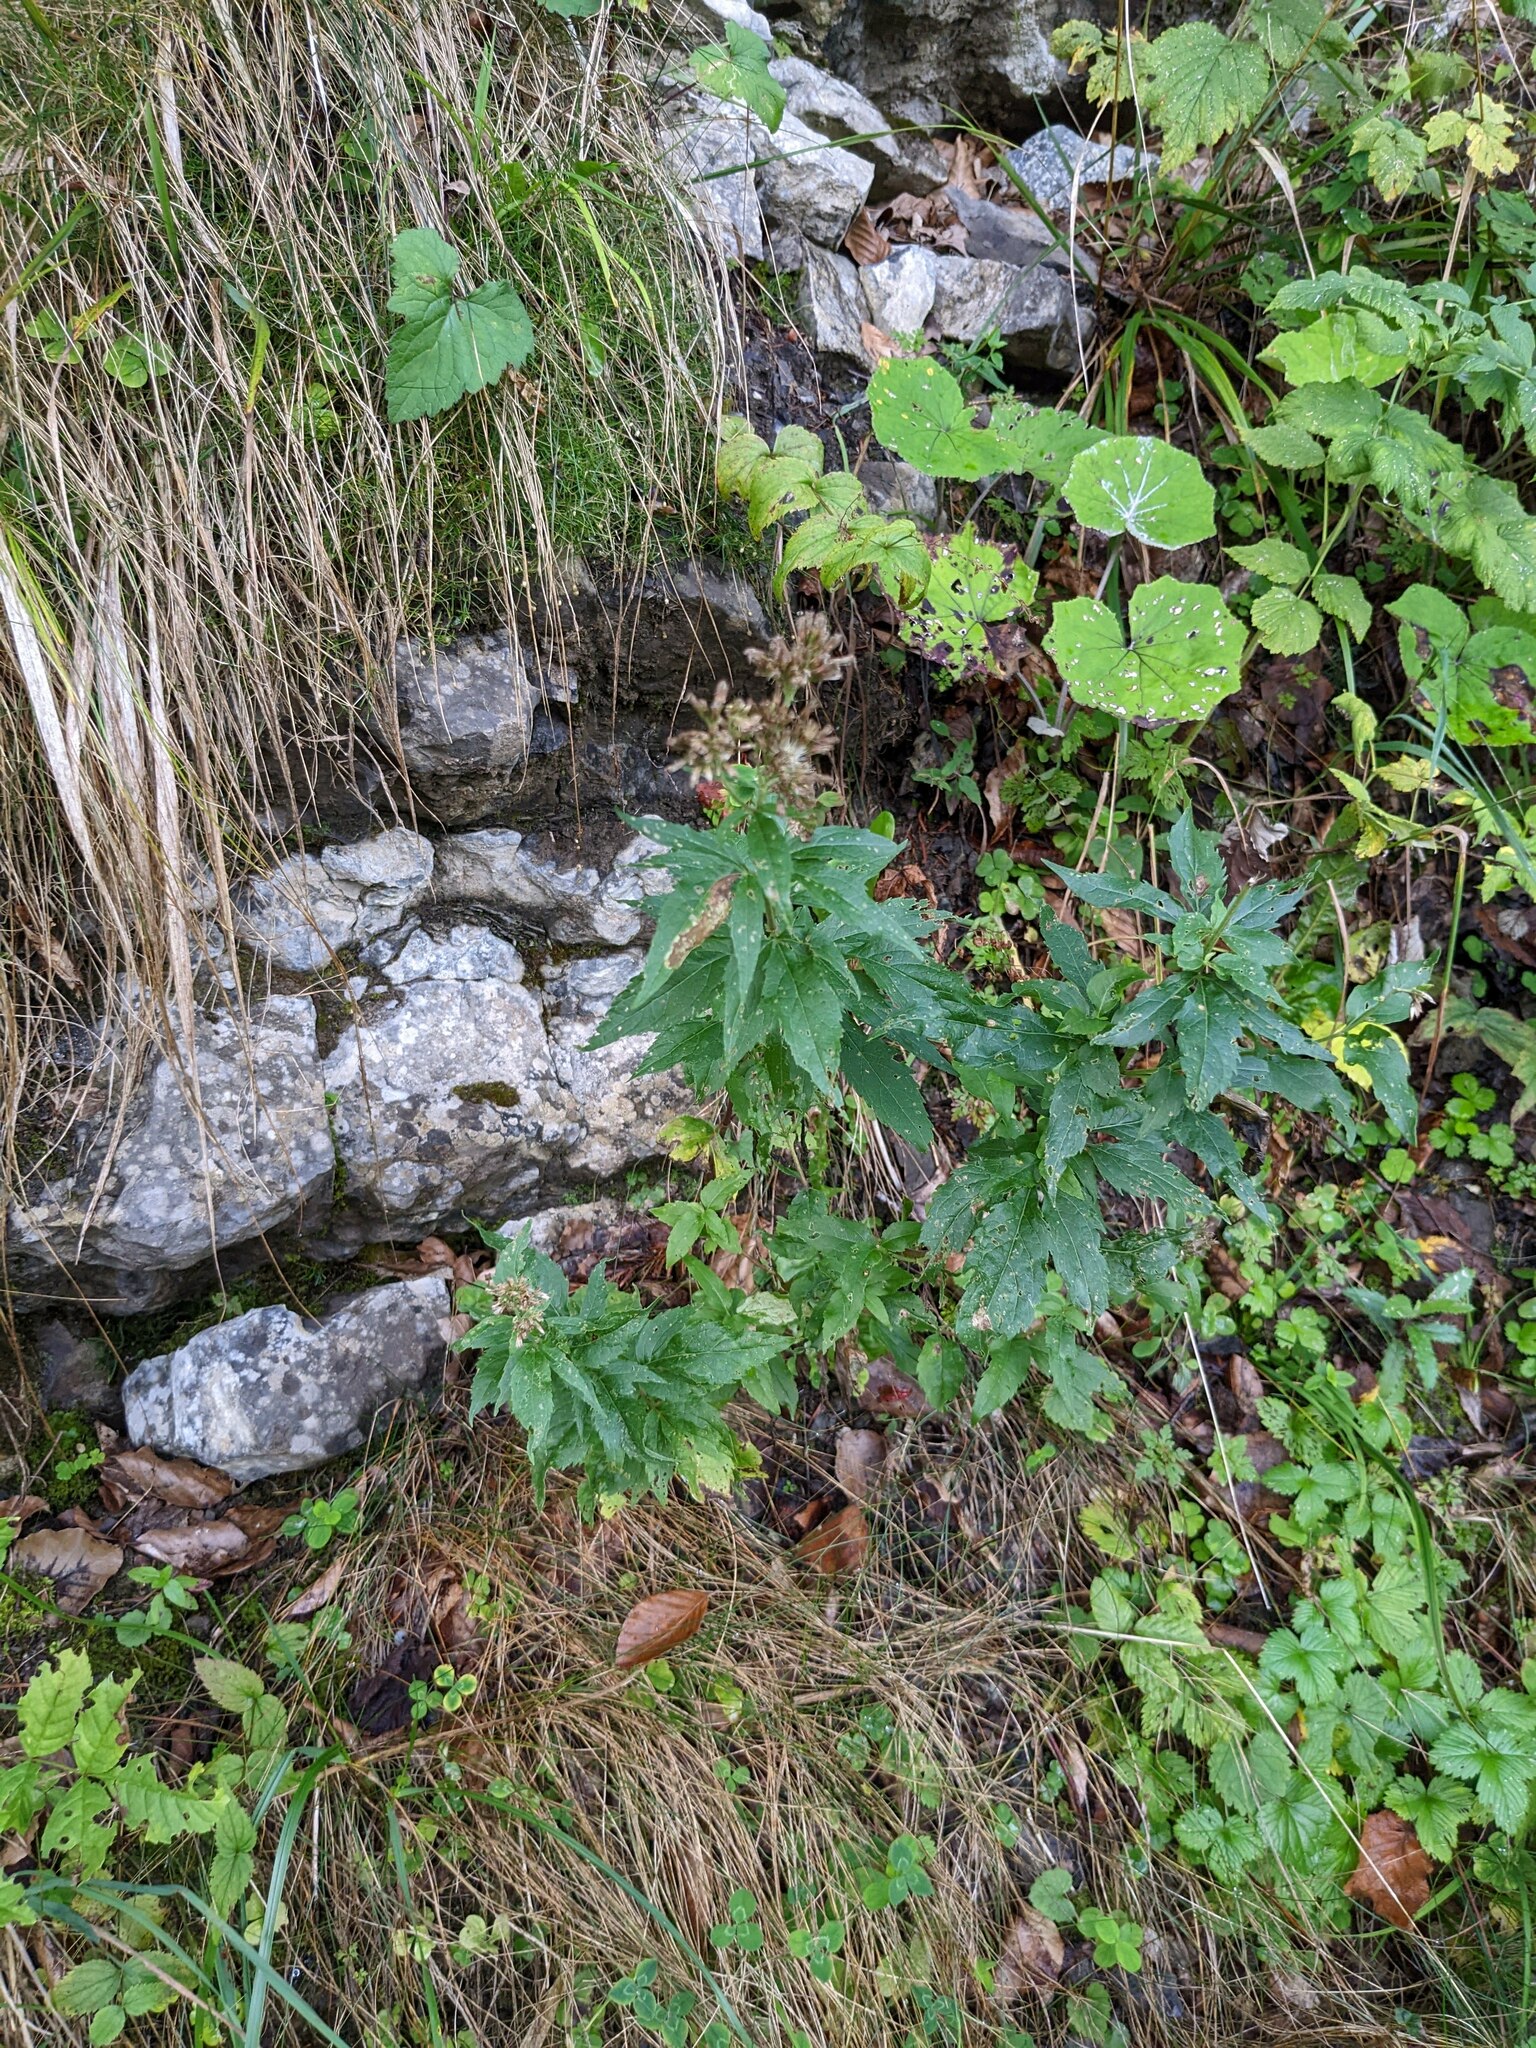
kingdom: Plantae
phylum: Tracheophyta
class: Magnoliopsida
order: Asterales
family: Asteraceae
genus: Eupatorium
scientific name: Eupatorium cannabinum
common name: Hemp-agrimony
